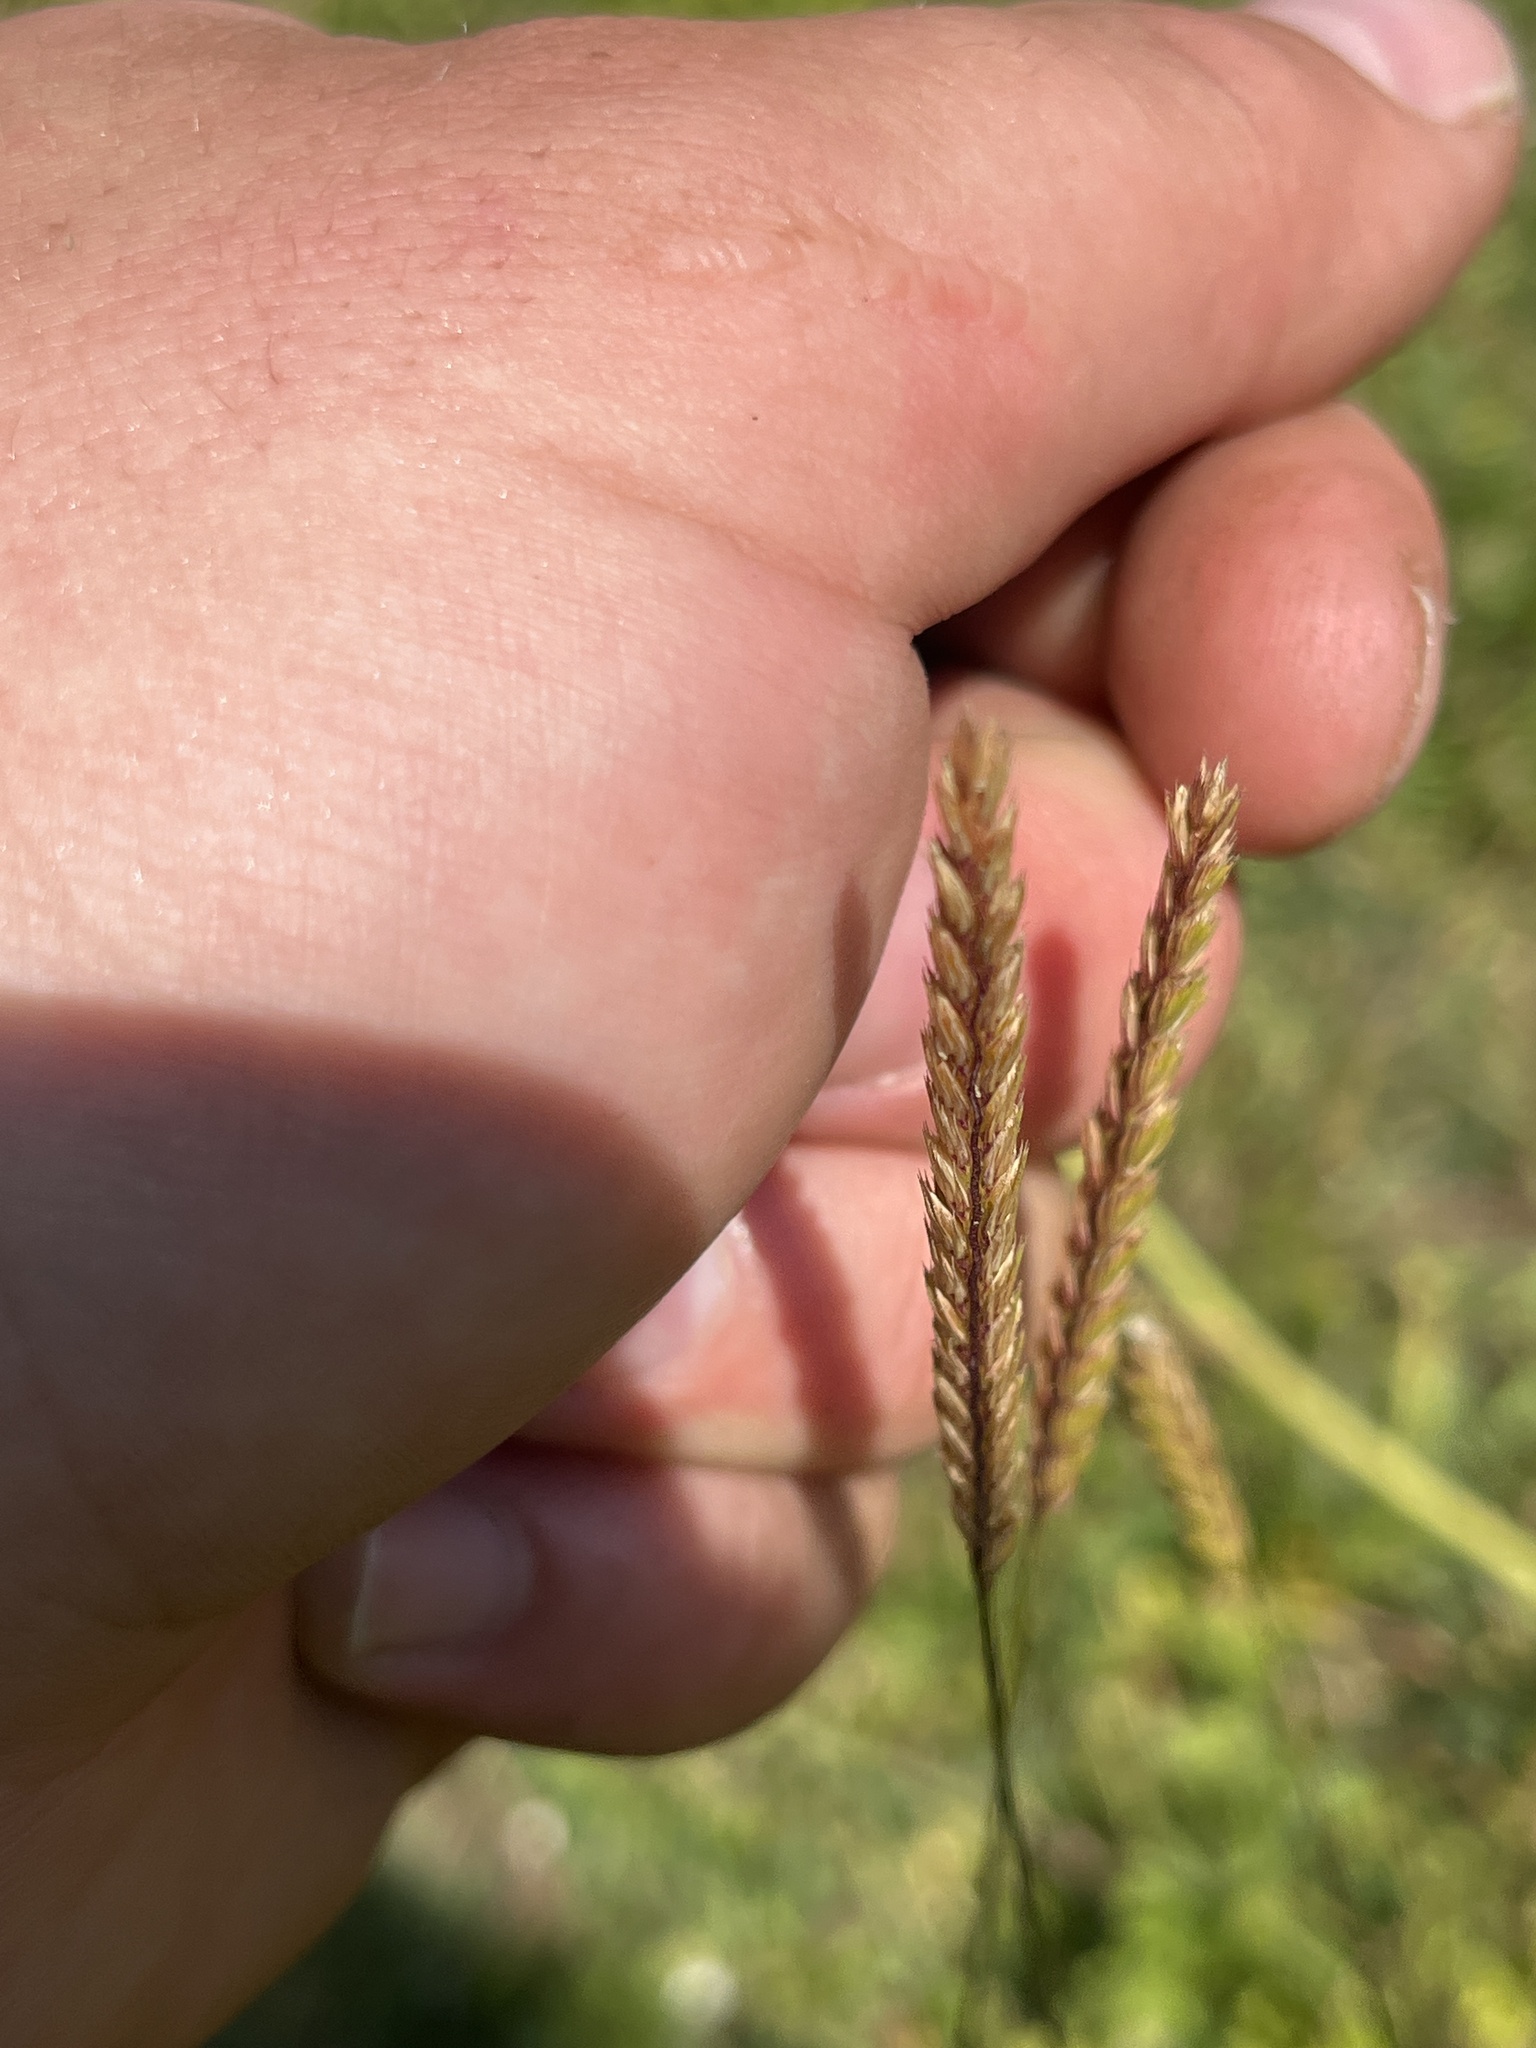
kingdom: Plantae
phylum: Tracheophyta
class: Liliopsida
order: Poales
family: Poaceae
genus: Cynosurus
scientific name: Cynosurus cristatus
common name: Crested dog's-tail
